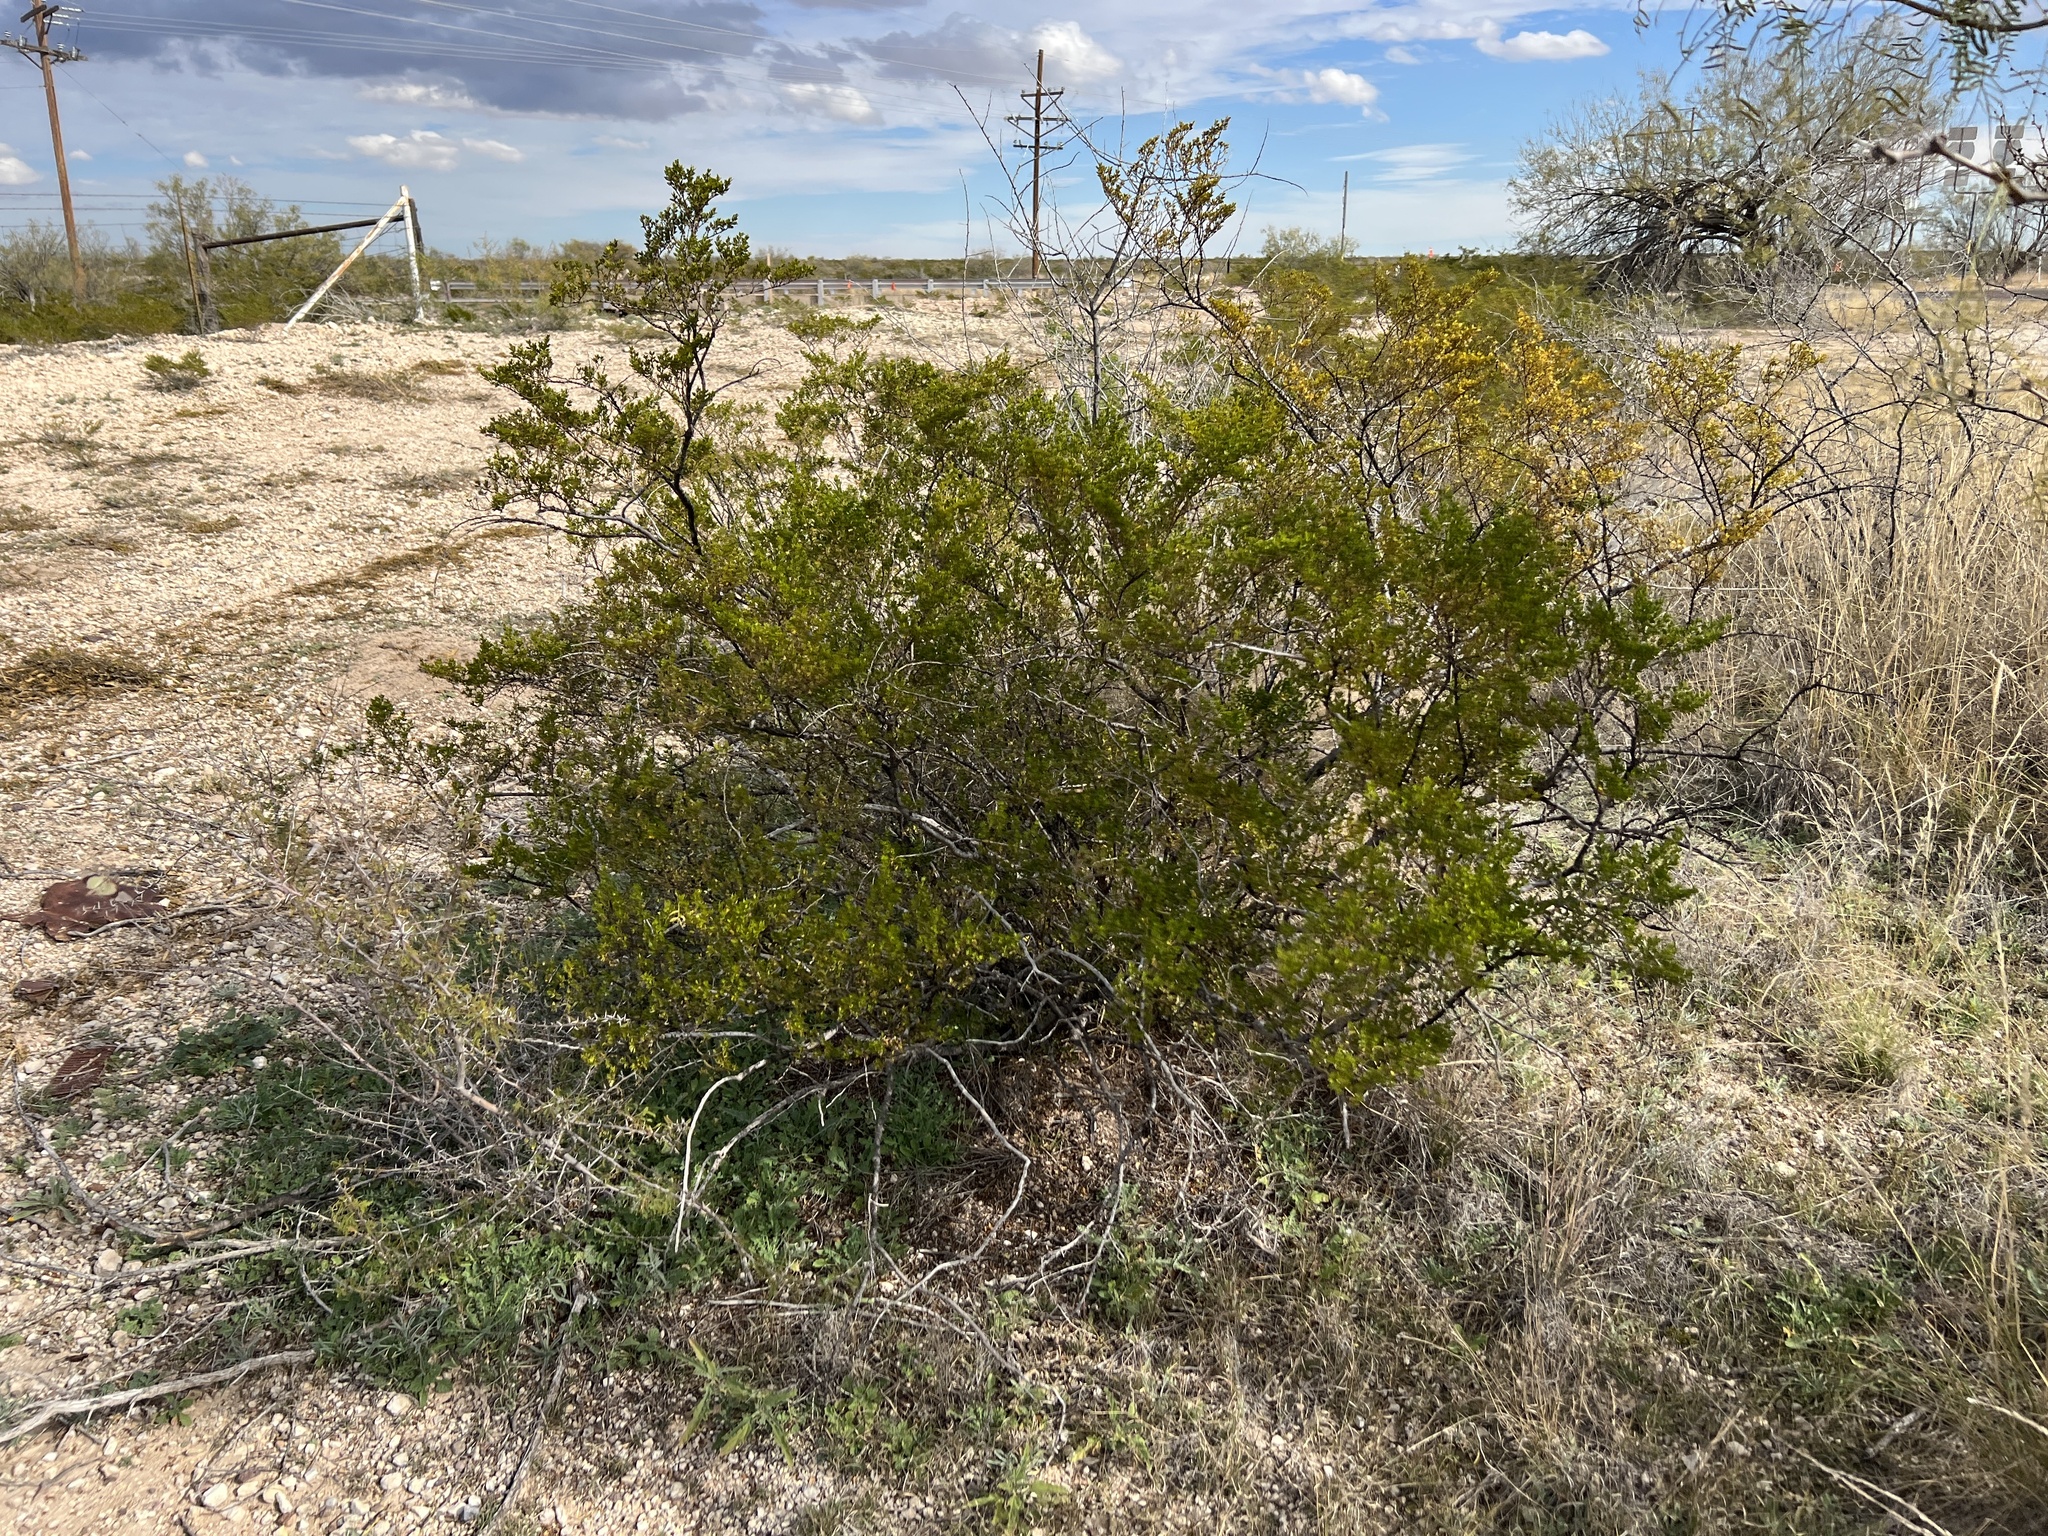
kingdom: Plantae
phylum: Tracheophyta
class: Magnoliopsida
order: Zygophyllales
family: Zygophyllaceae
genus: Larrea
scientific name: Larrea tridentata
